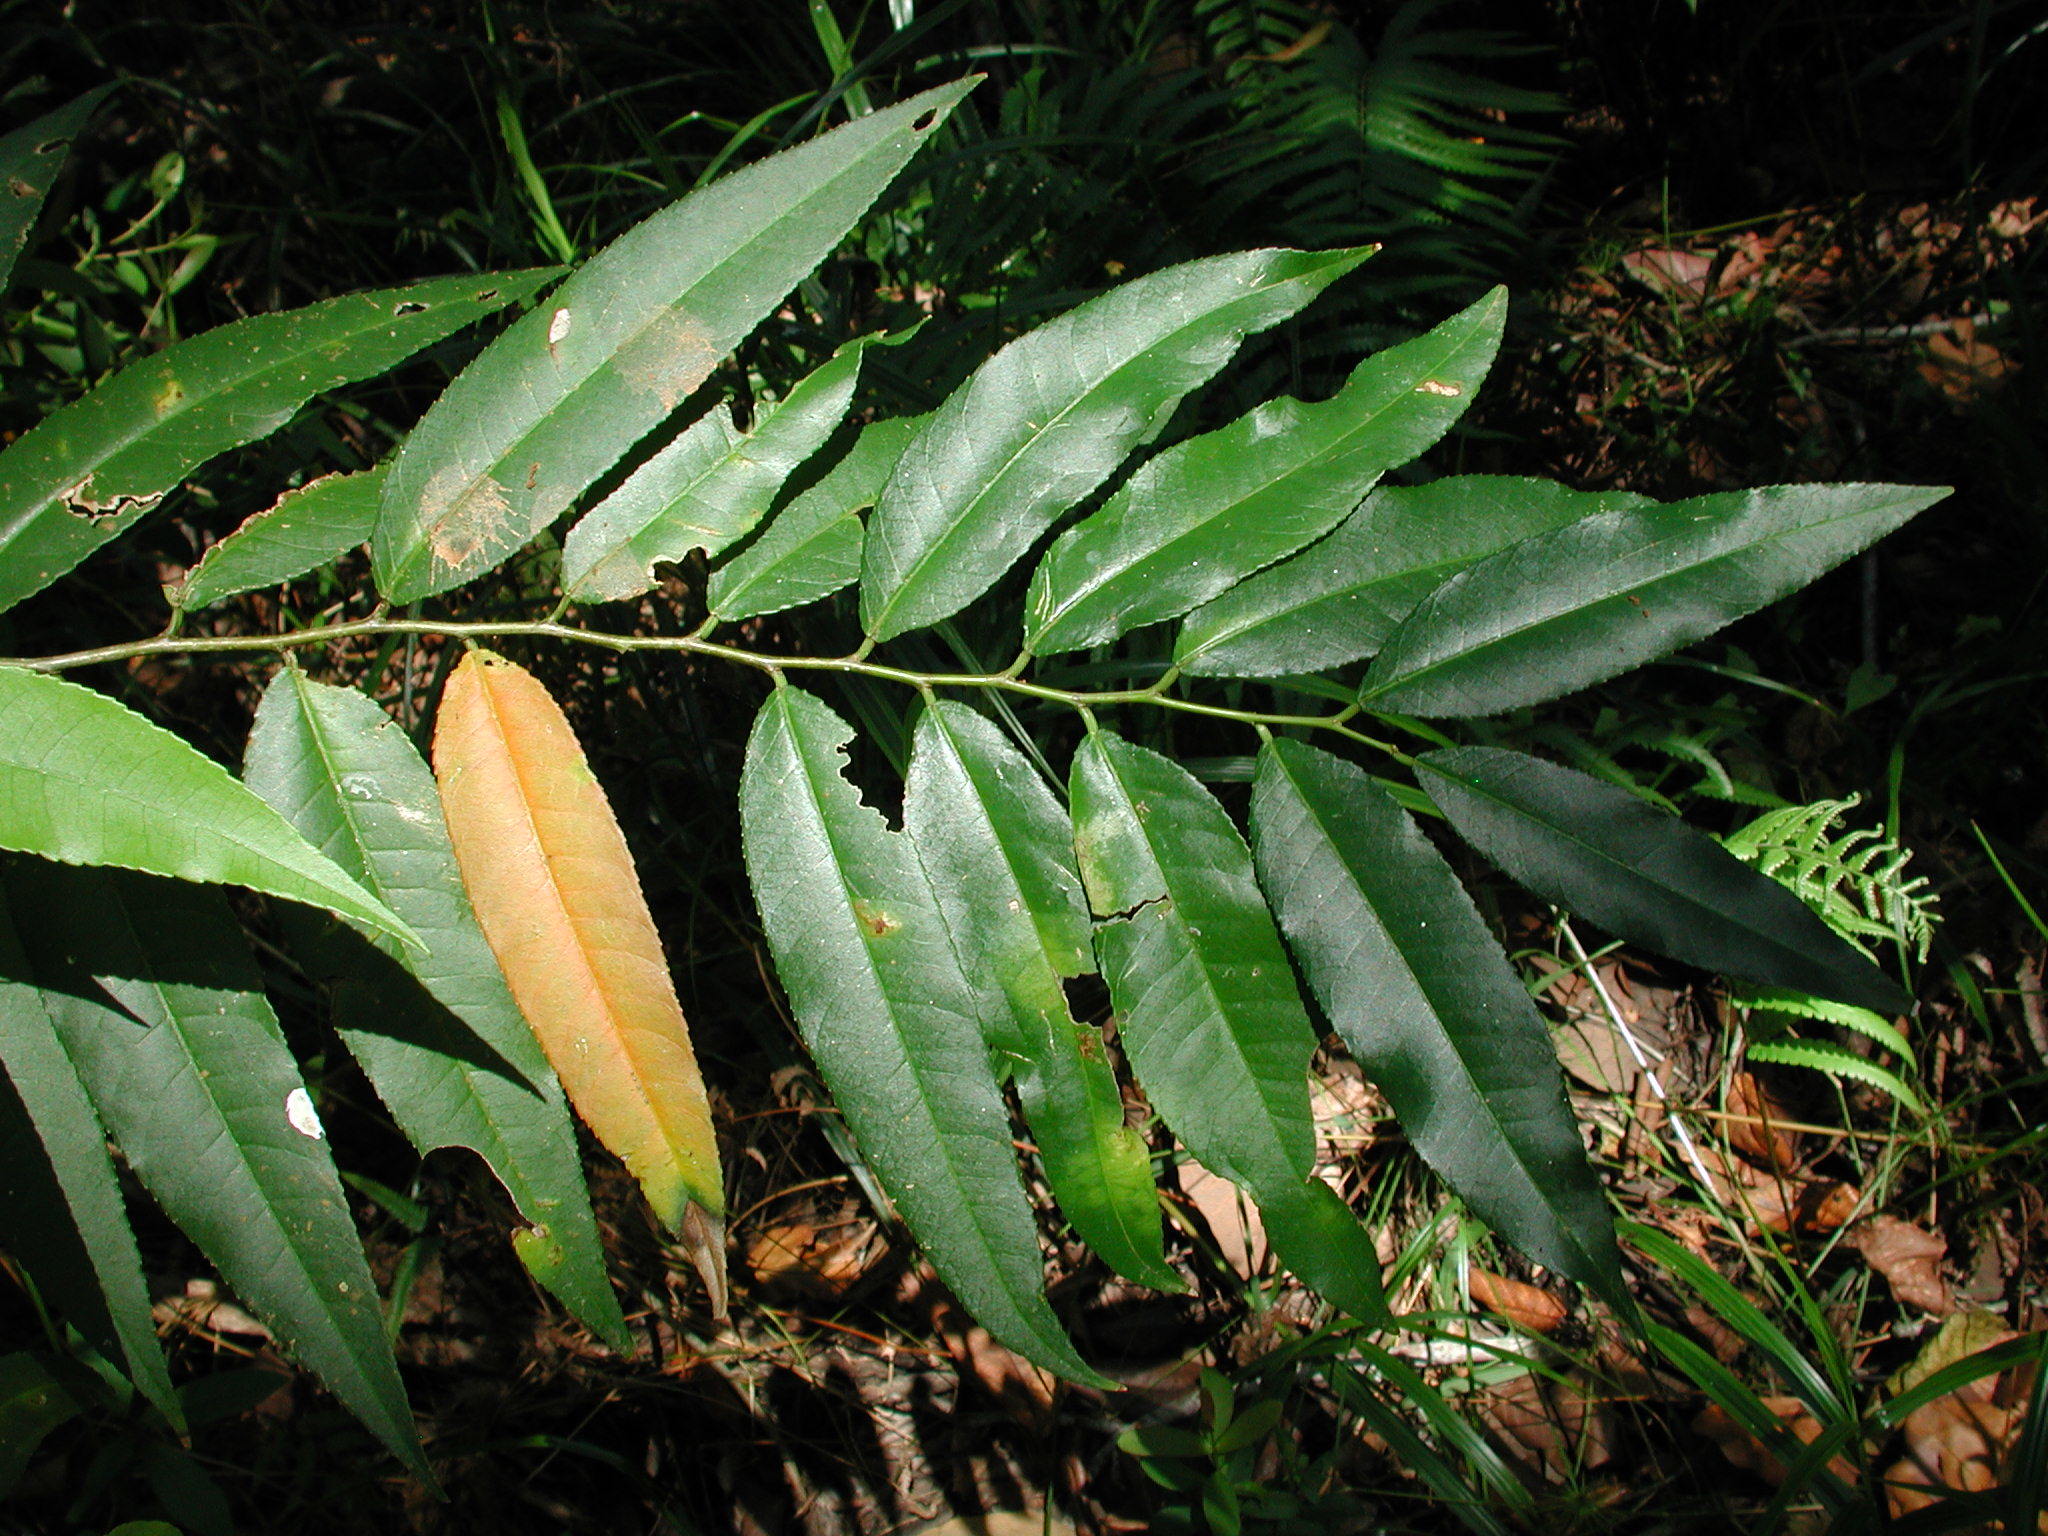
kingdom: Plantae
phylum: Tracheophyta
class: Magnoliopsida
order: Malpighiales
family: Salicaceae
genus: Casearia
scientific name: Casearia gladiiformis
